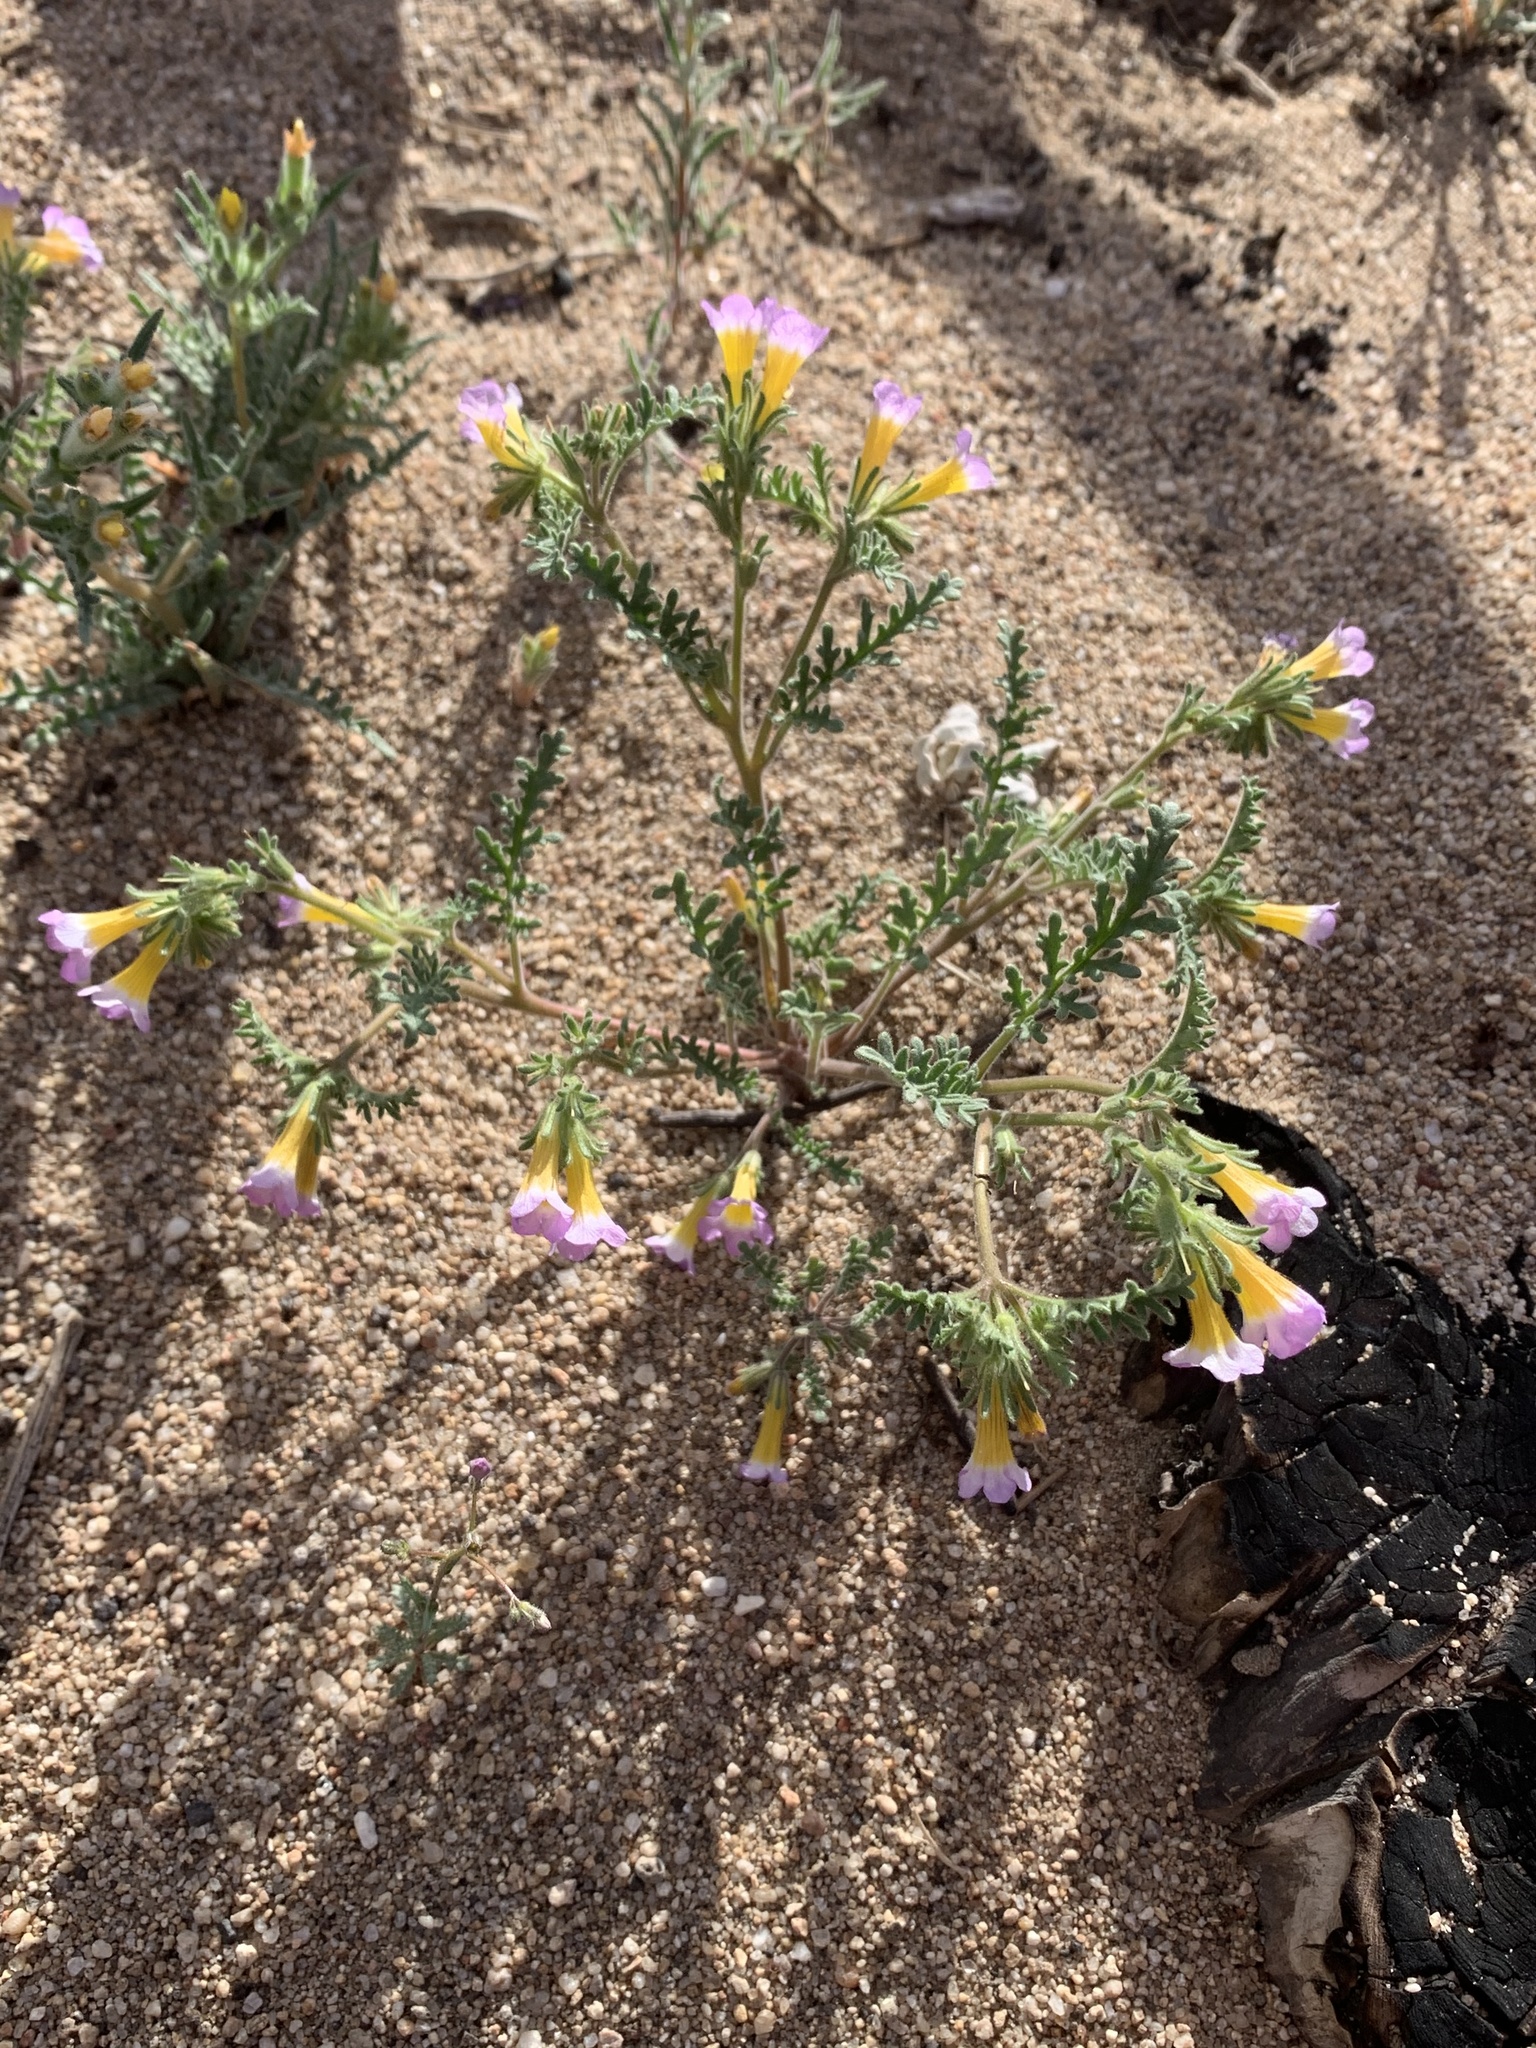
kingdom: Plantae
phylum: Tracheophyta
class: Magnoliopsida
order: Boraginales
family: Hydrophyllaceae
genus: Phacelia
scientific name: Phacelia bicolor
